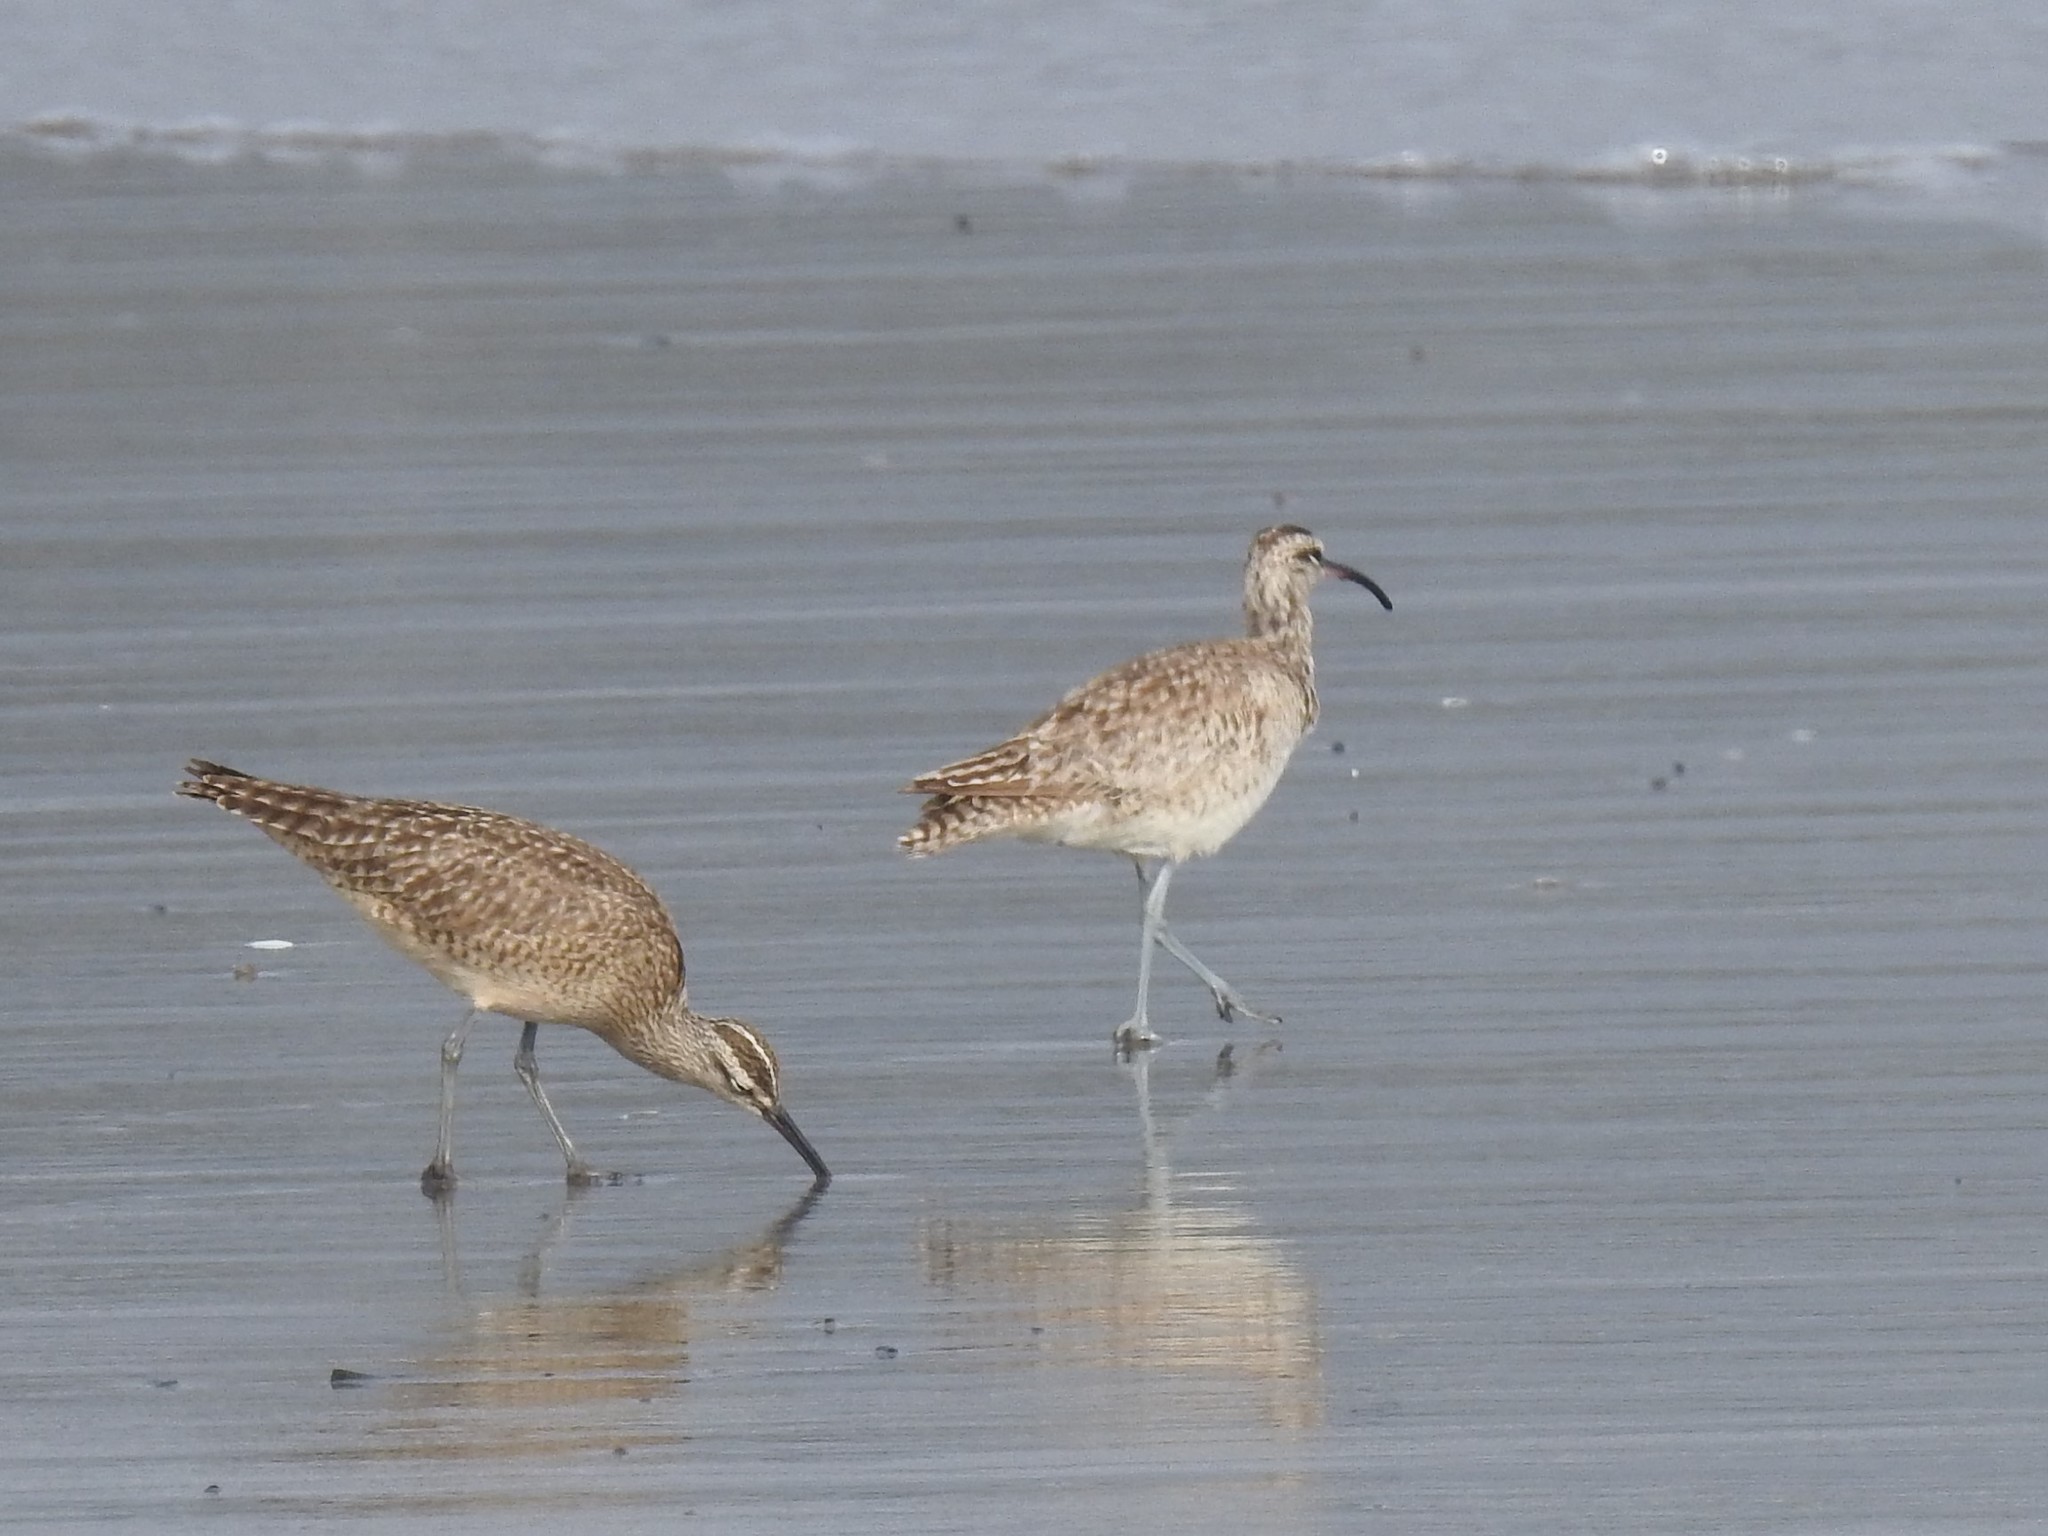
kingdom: Animalia
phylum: Chordata
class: Aves
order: Charadriiformes
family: Scolopacidae
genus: Numenius
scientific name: Numenius phaeopus
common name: Whimbrel
